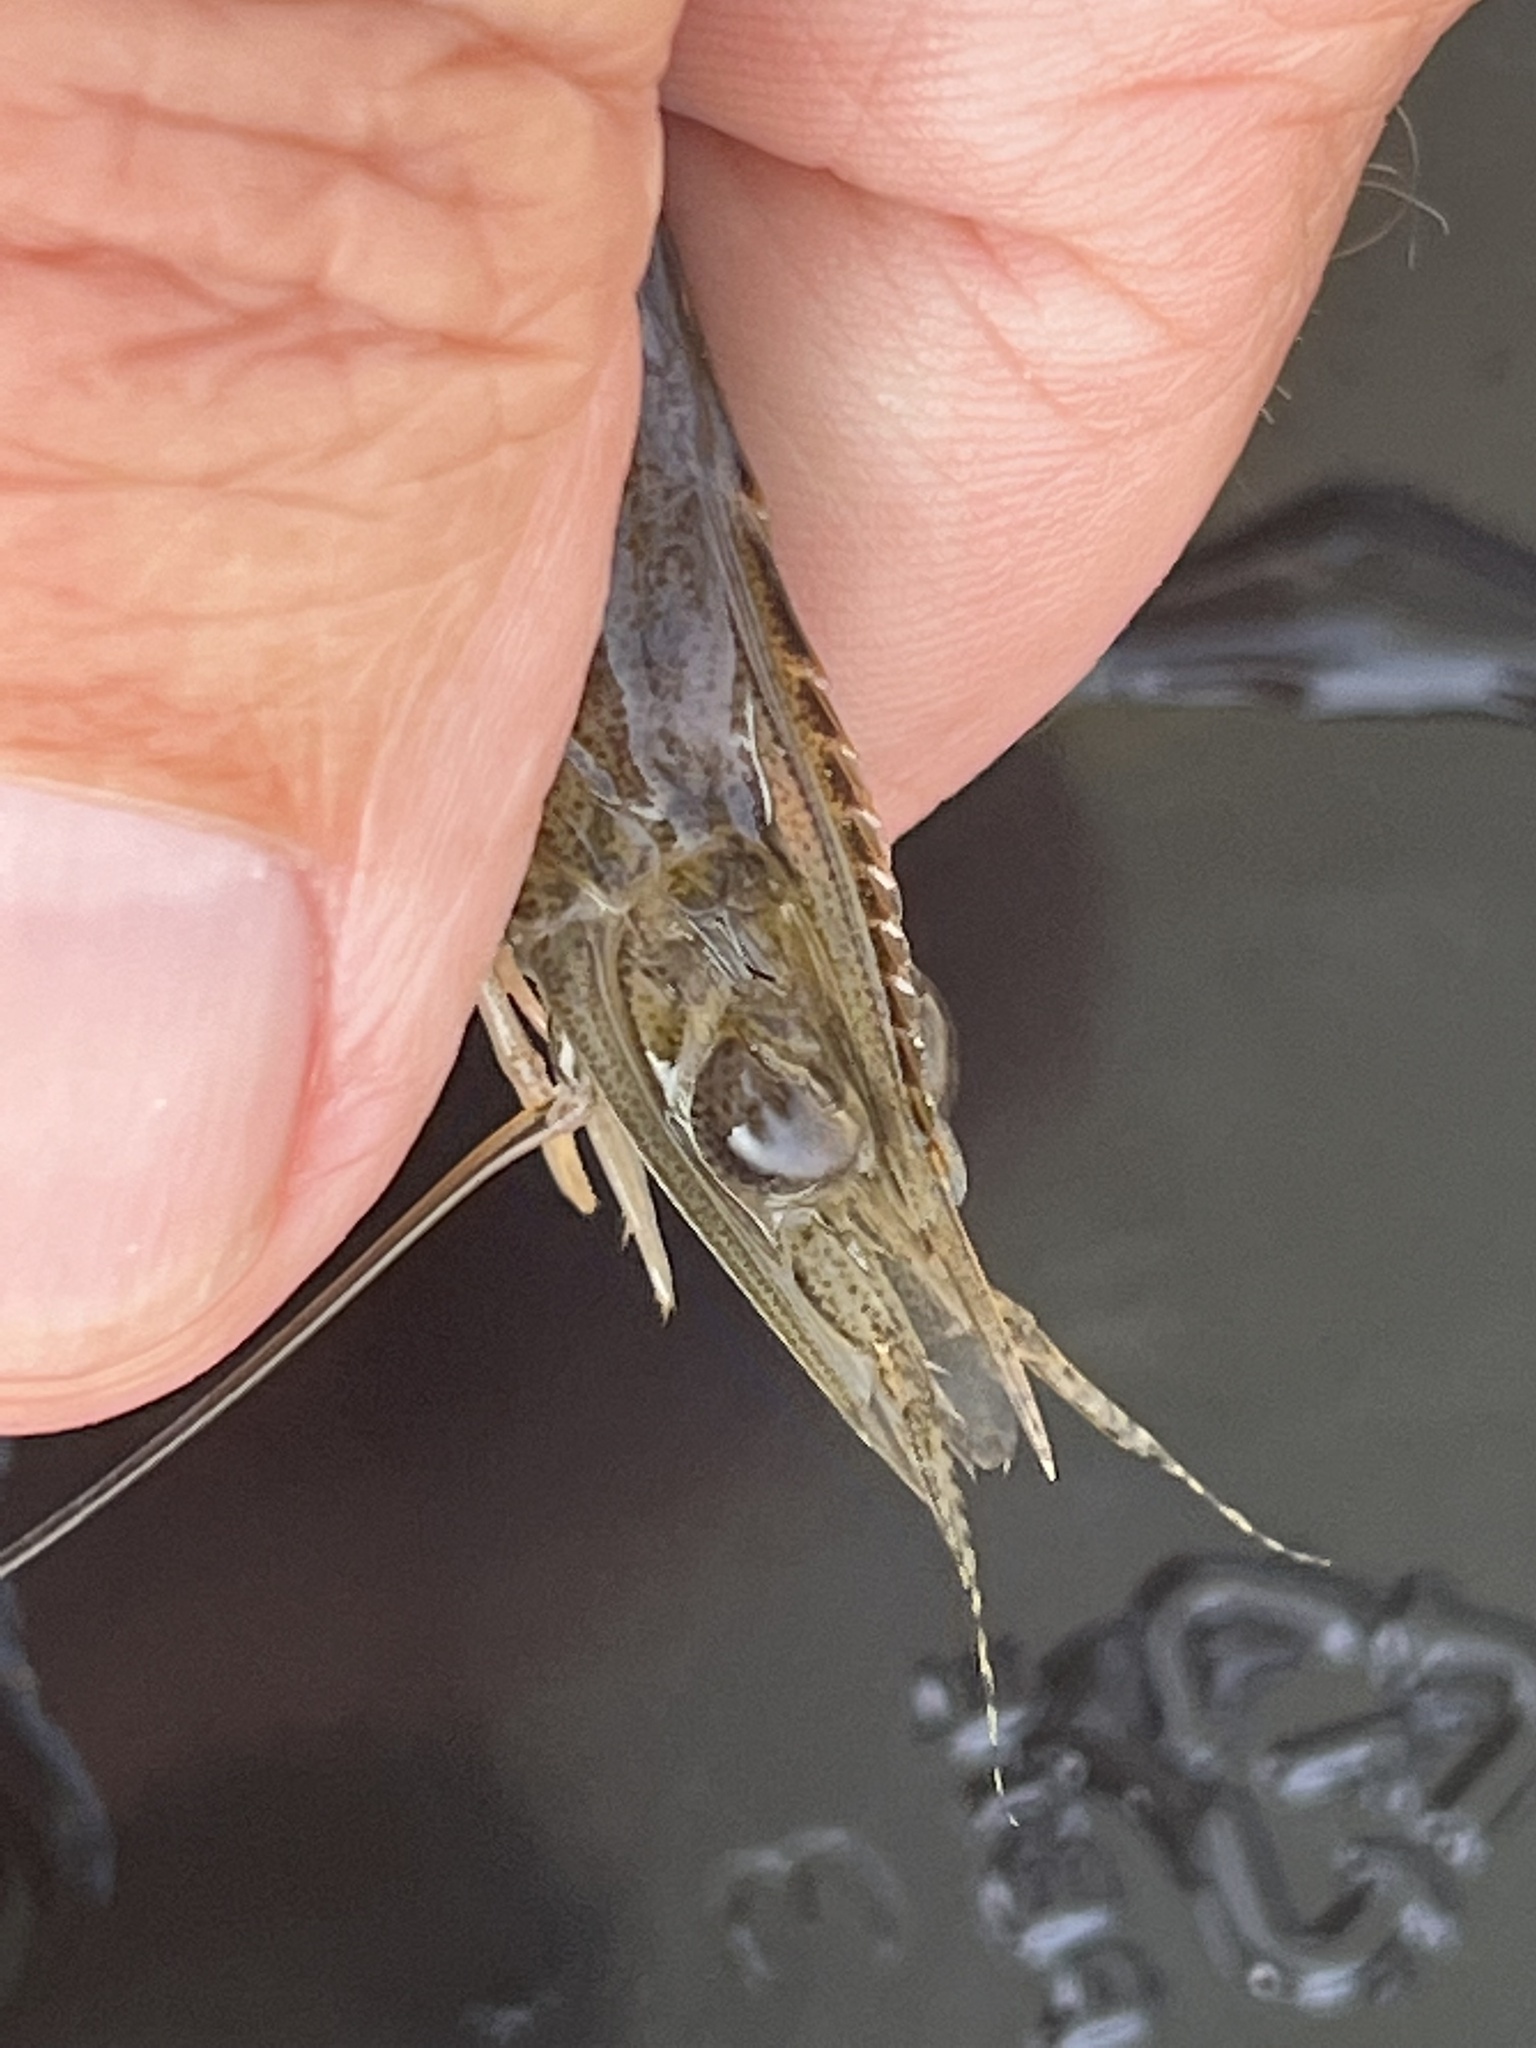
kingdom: Animalia
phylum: Arthropoda
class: Malacostraca
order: Decapoda
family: Penaeidae
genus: Penaeus
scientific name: Penaeus setiferus
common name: Northern white shrimp
